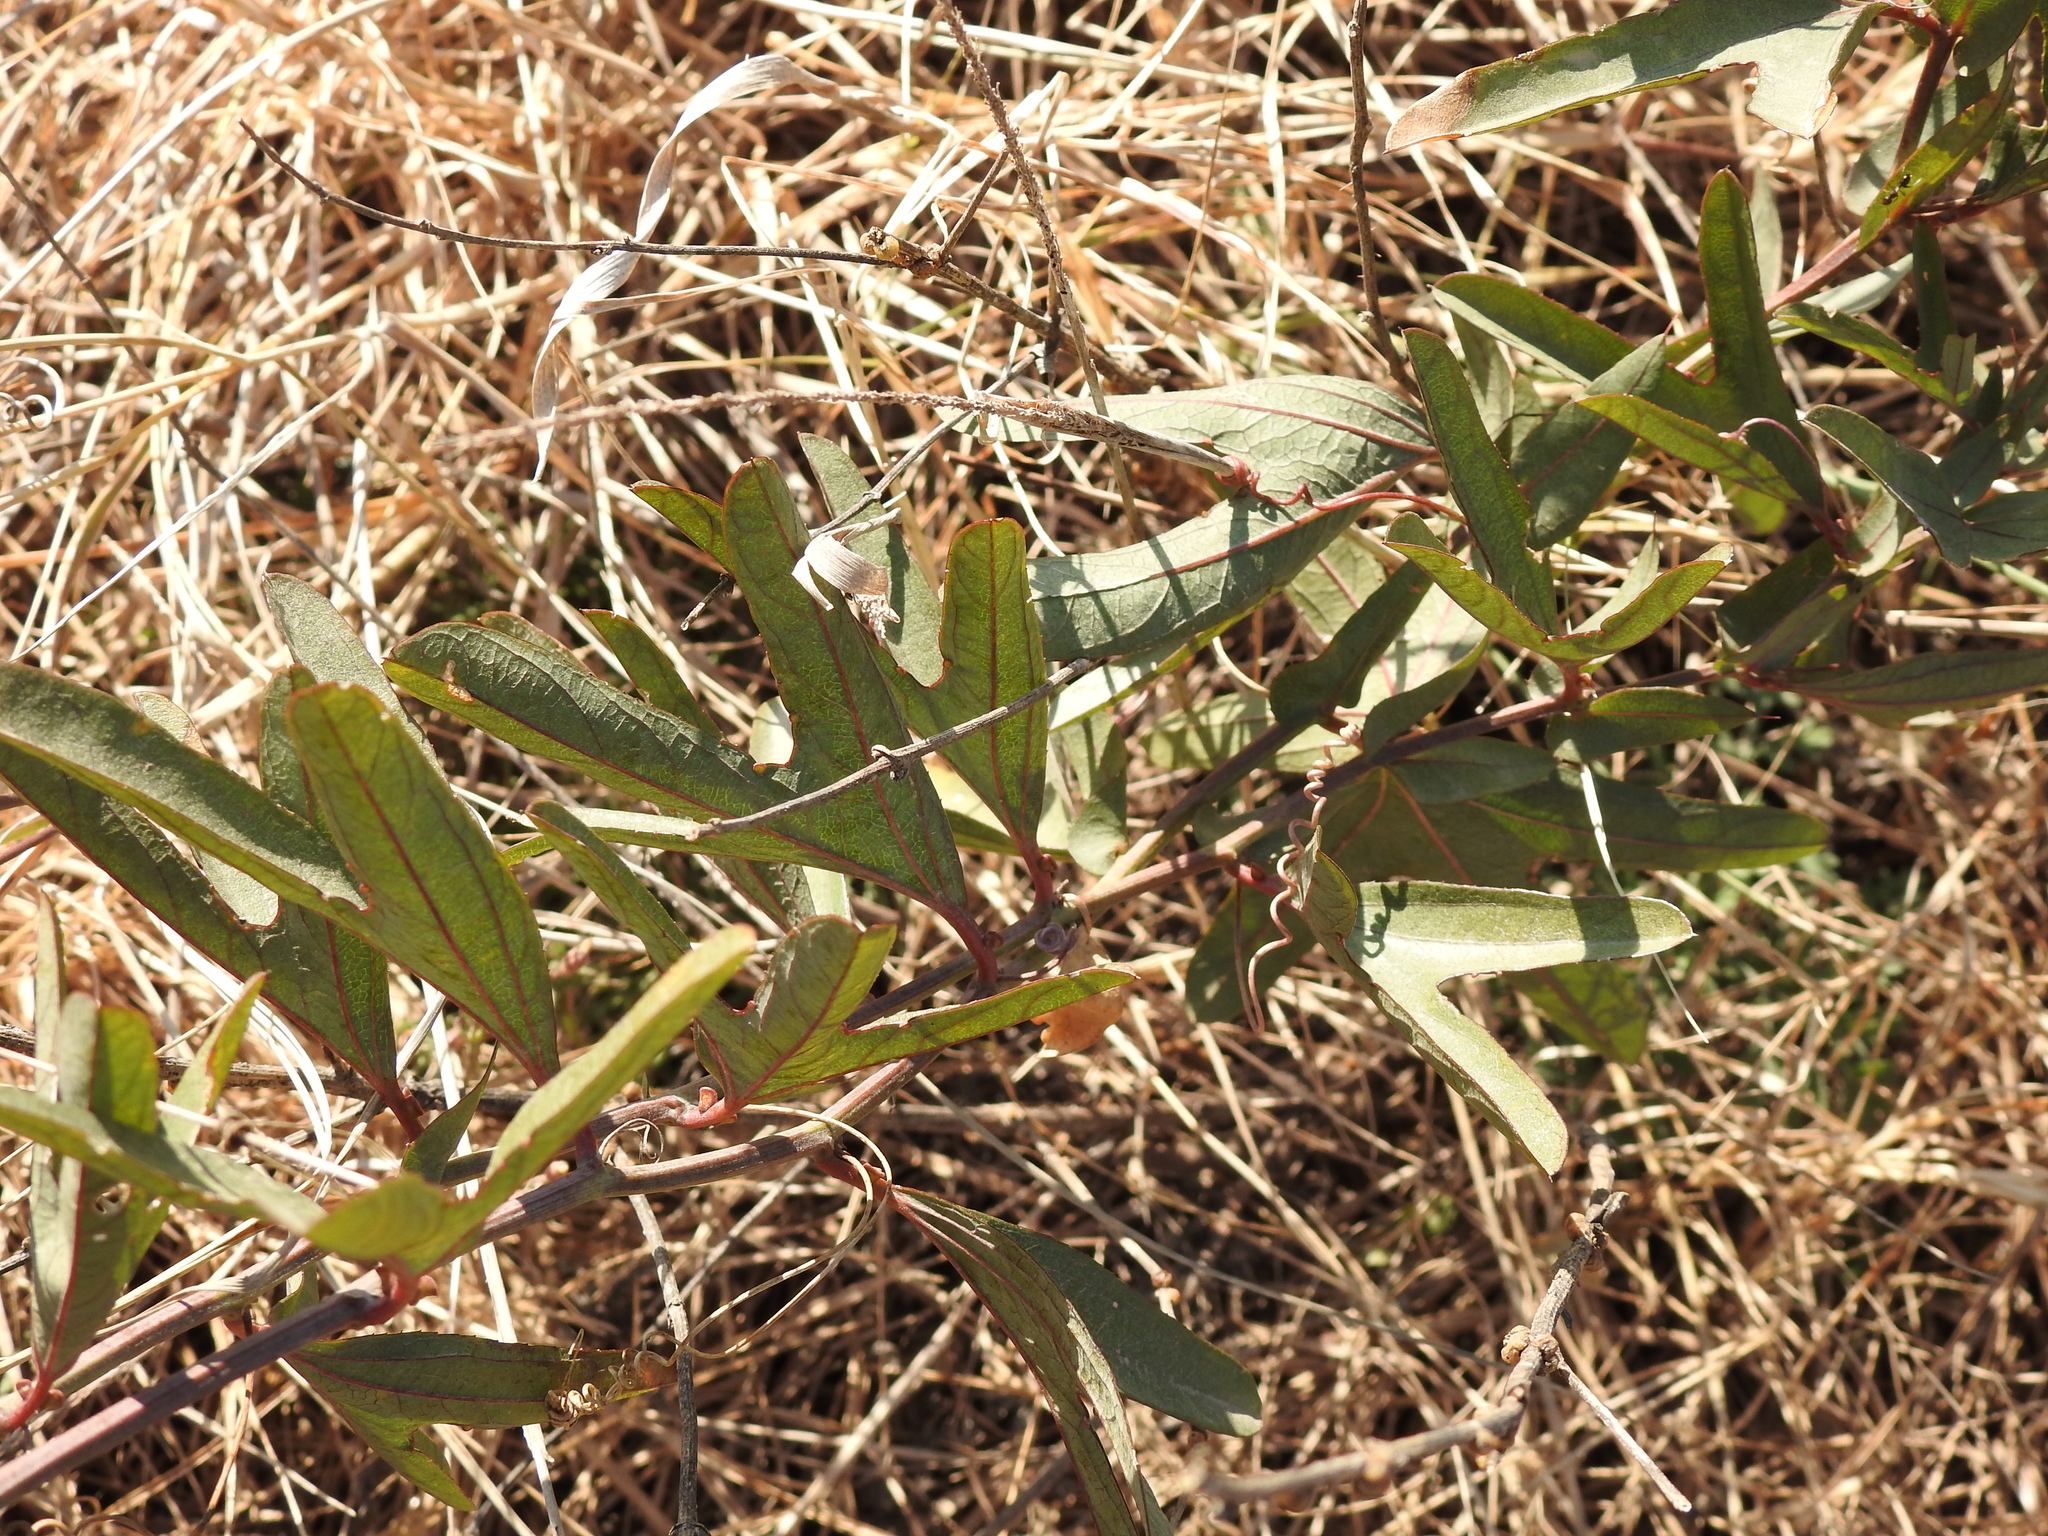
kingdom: Plantae
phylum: Tracheophyta
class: Magnoliopsida
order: Caryophyllales
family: Polygonaceae
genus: Muehlenbeckia
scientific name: Muehlenbeckia sagittifolia
